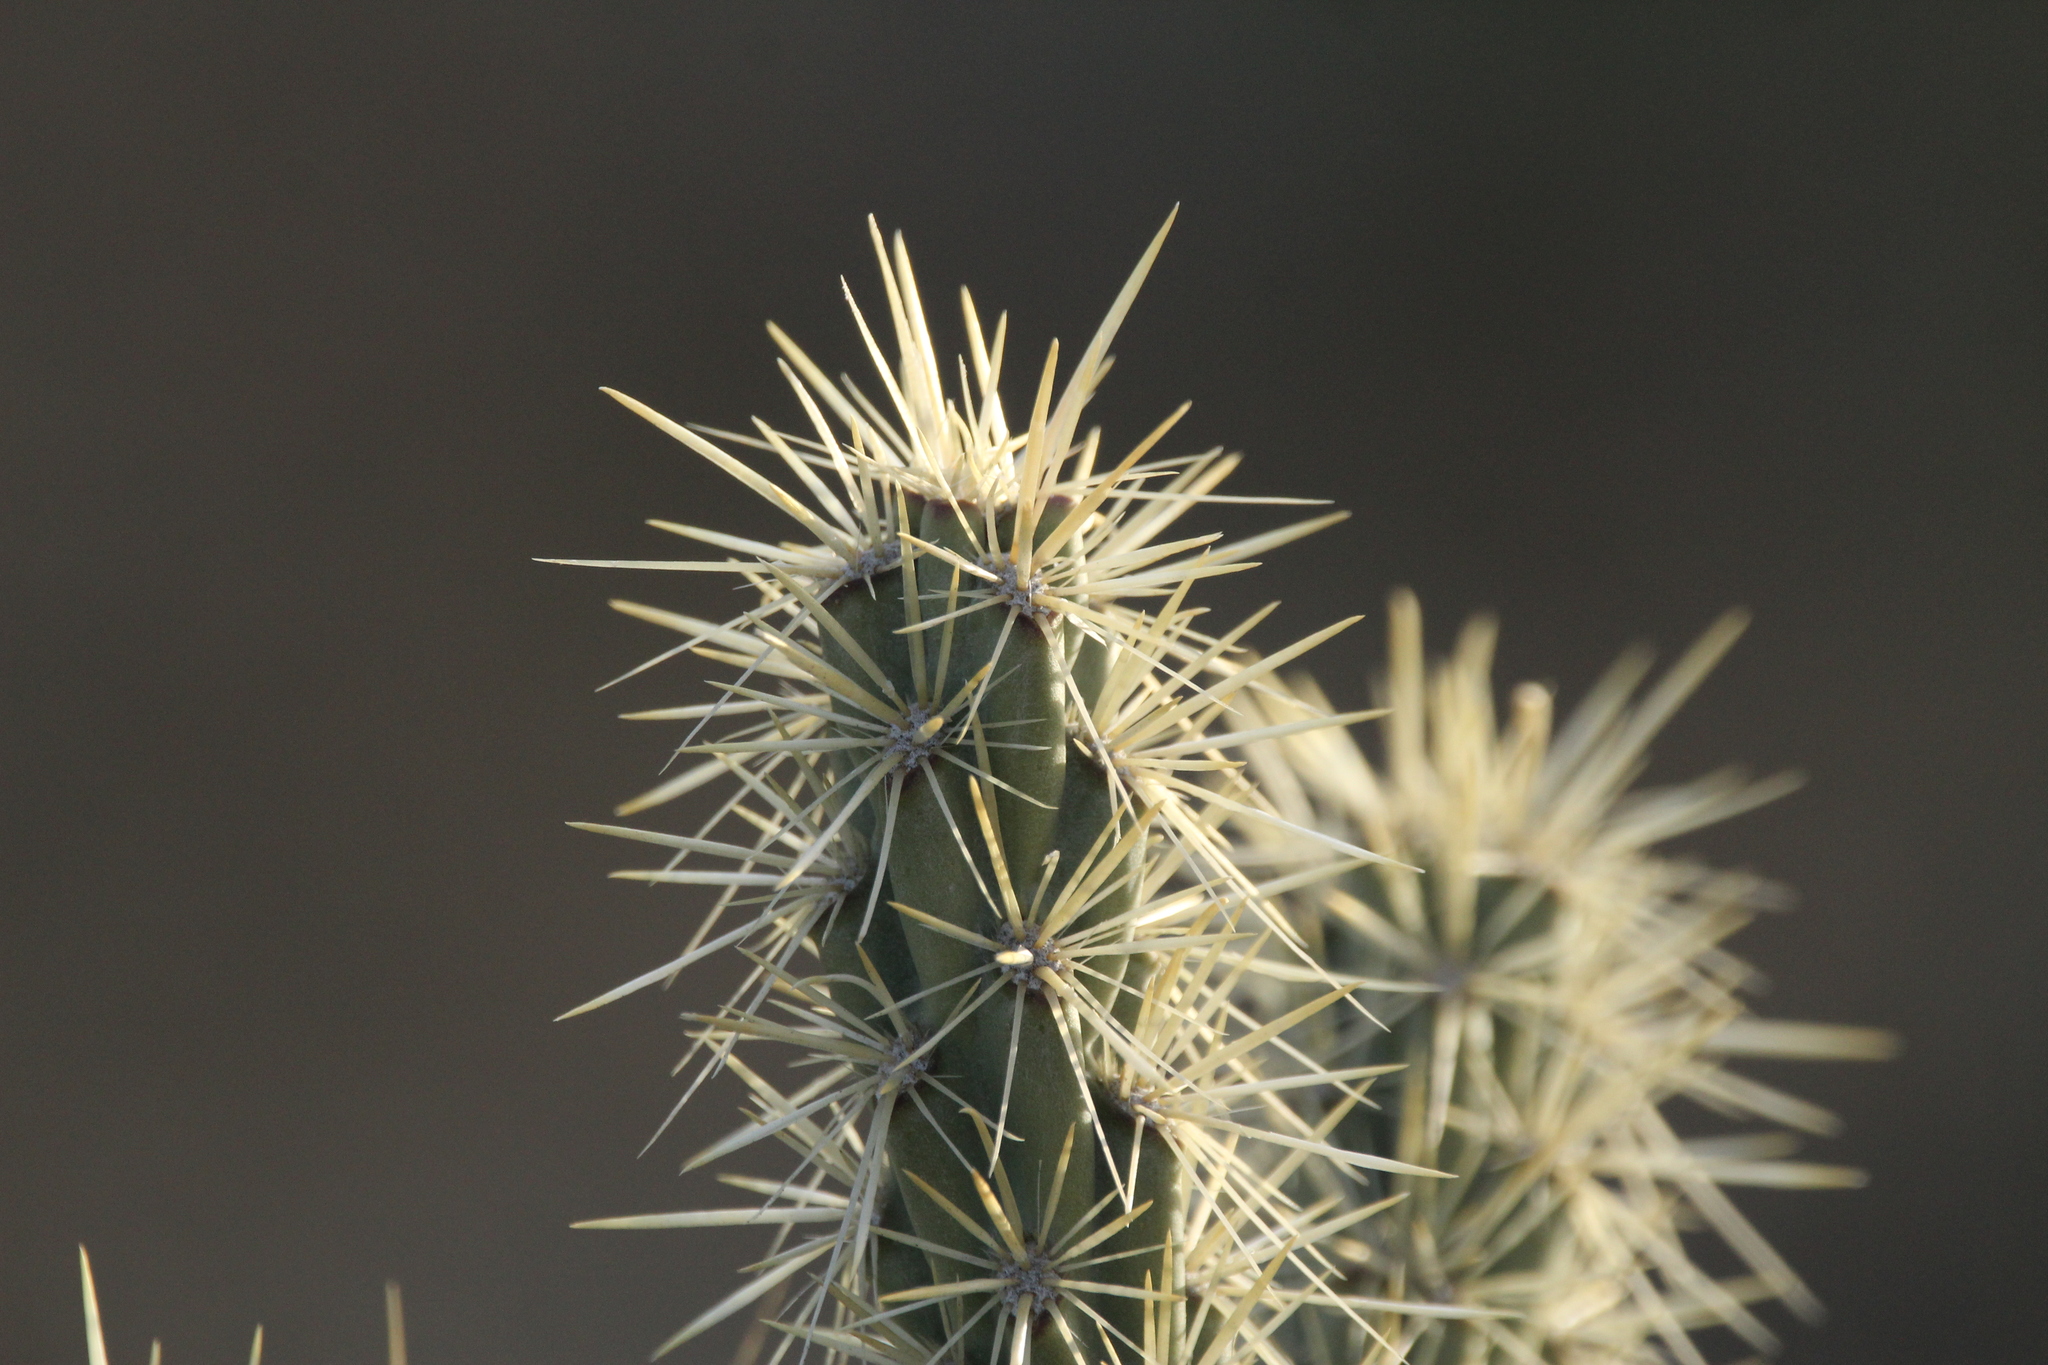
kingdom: Plantae
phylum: Tracheophyta
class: Magnoliopsida
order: Caryophyllales
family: Cactaceae
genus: Cylindropuntia
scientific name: Cylindropuntia acanthocarpa
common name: Buckhorn cholla
